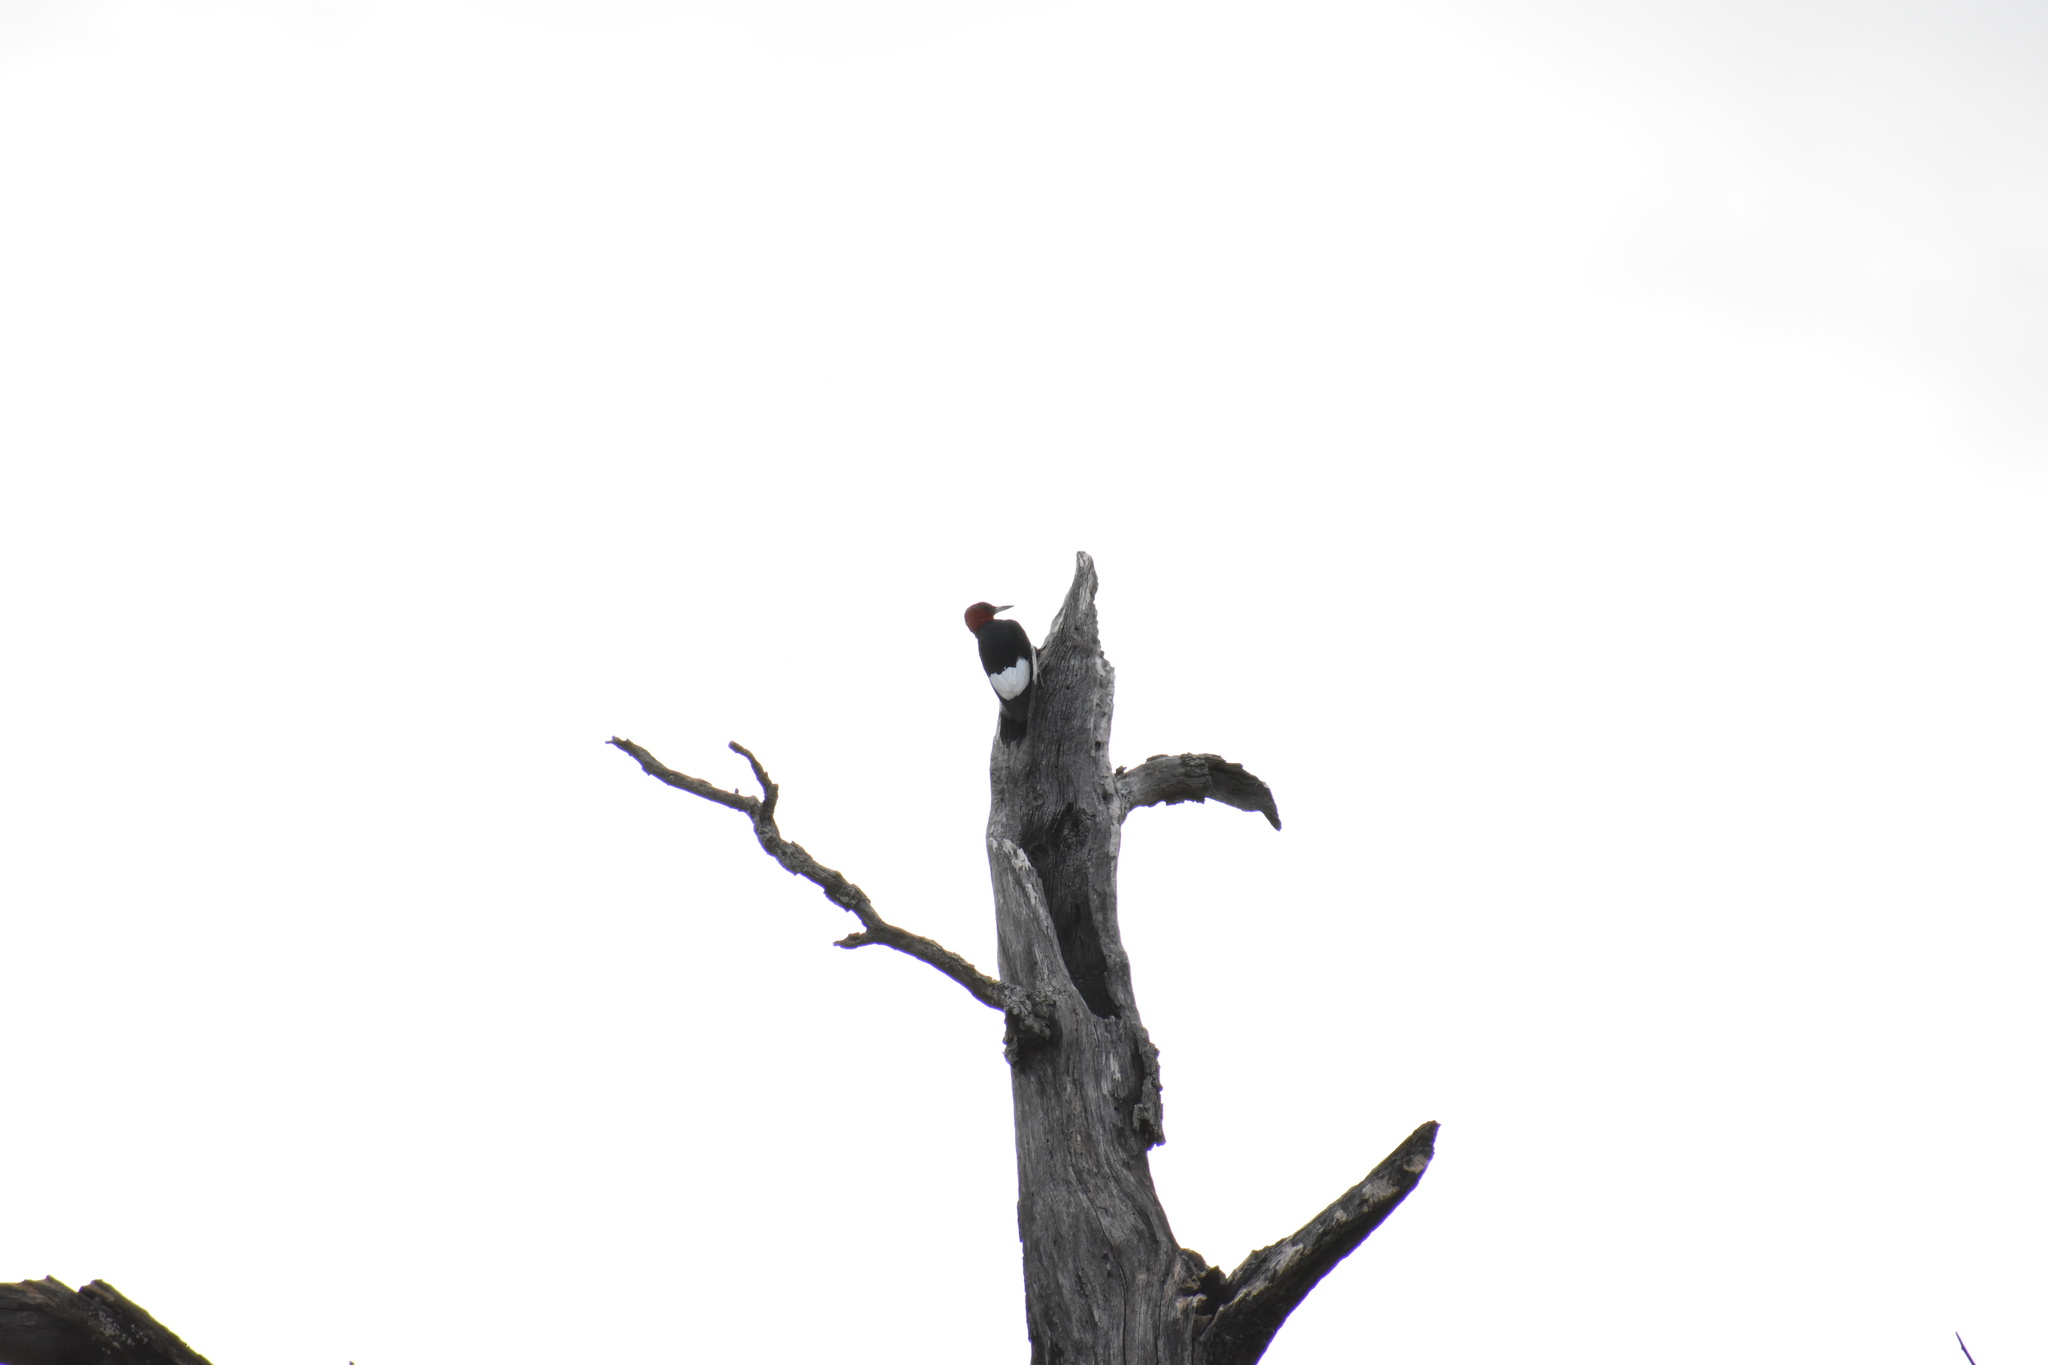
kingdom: Animalia
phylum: Chordata
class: Aves
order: Piciformes
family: Picidae
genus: Melanerpes
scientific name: Melanerpes erythrocephalus
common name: Red-headed woodpecker
